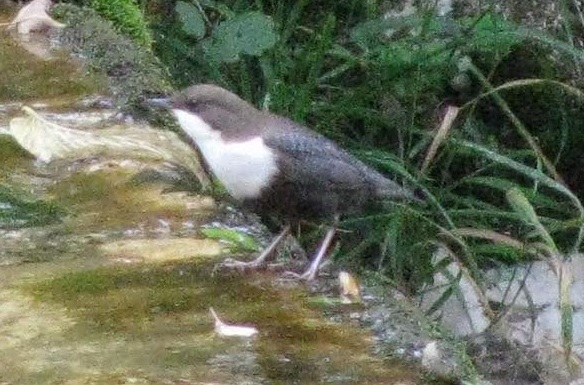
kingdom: Animalia
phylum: Chordata
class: Aves
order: Passeriformes
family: Cinclidae
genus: Cinclus
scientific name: Cinclus cinclus
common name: White-throated dipper
